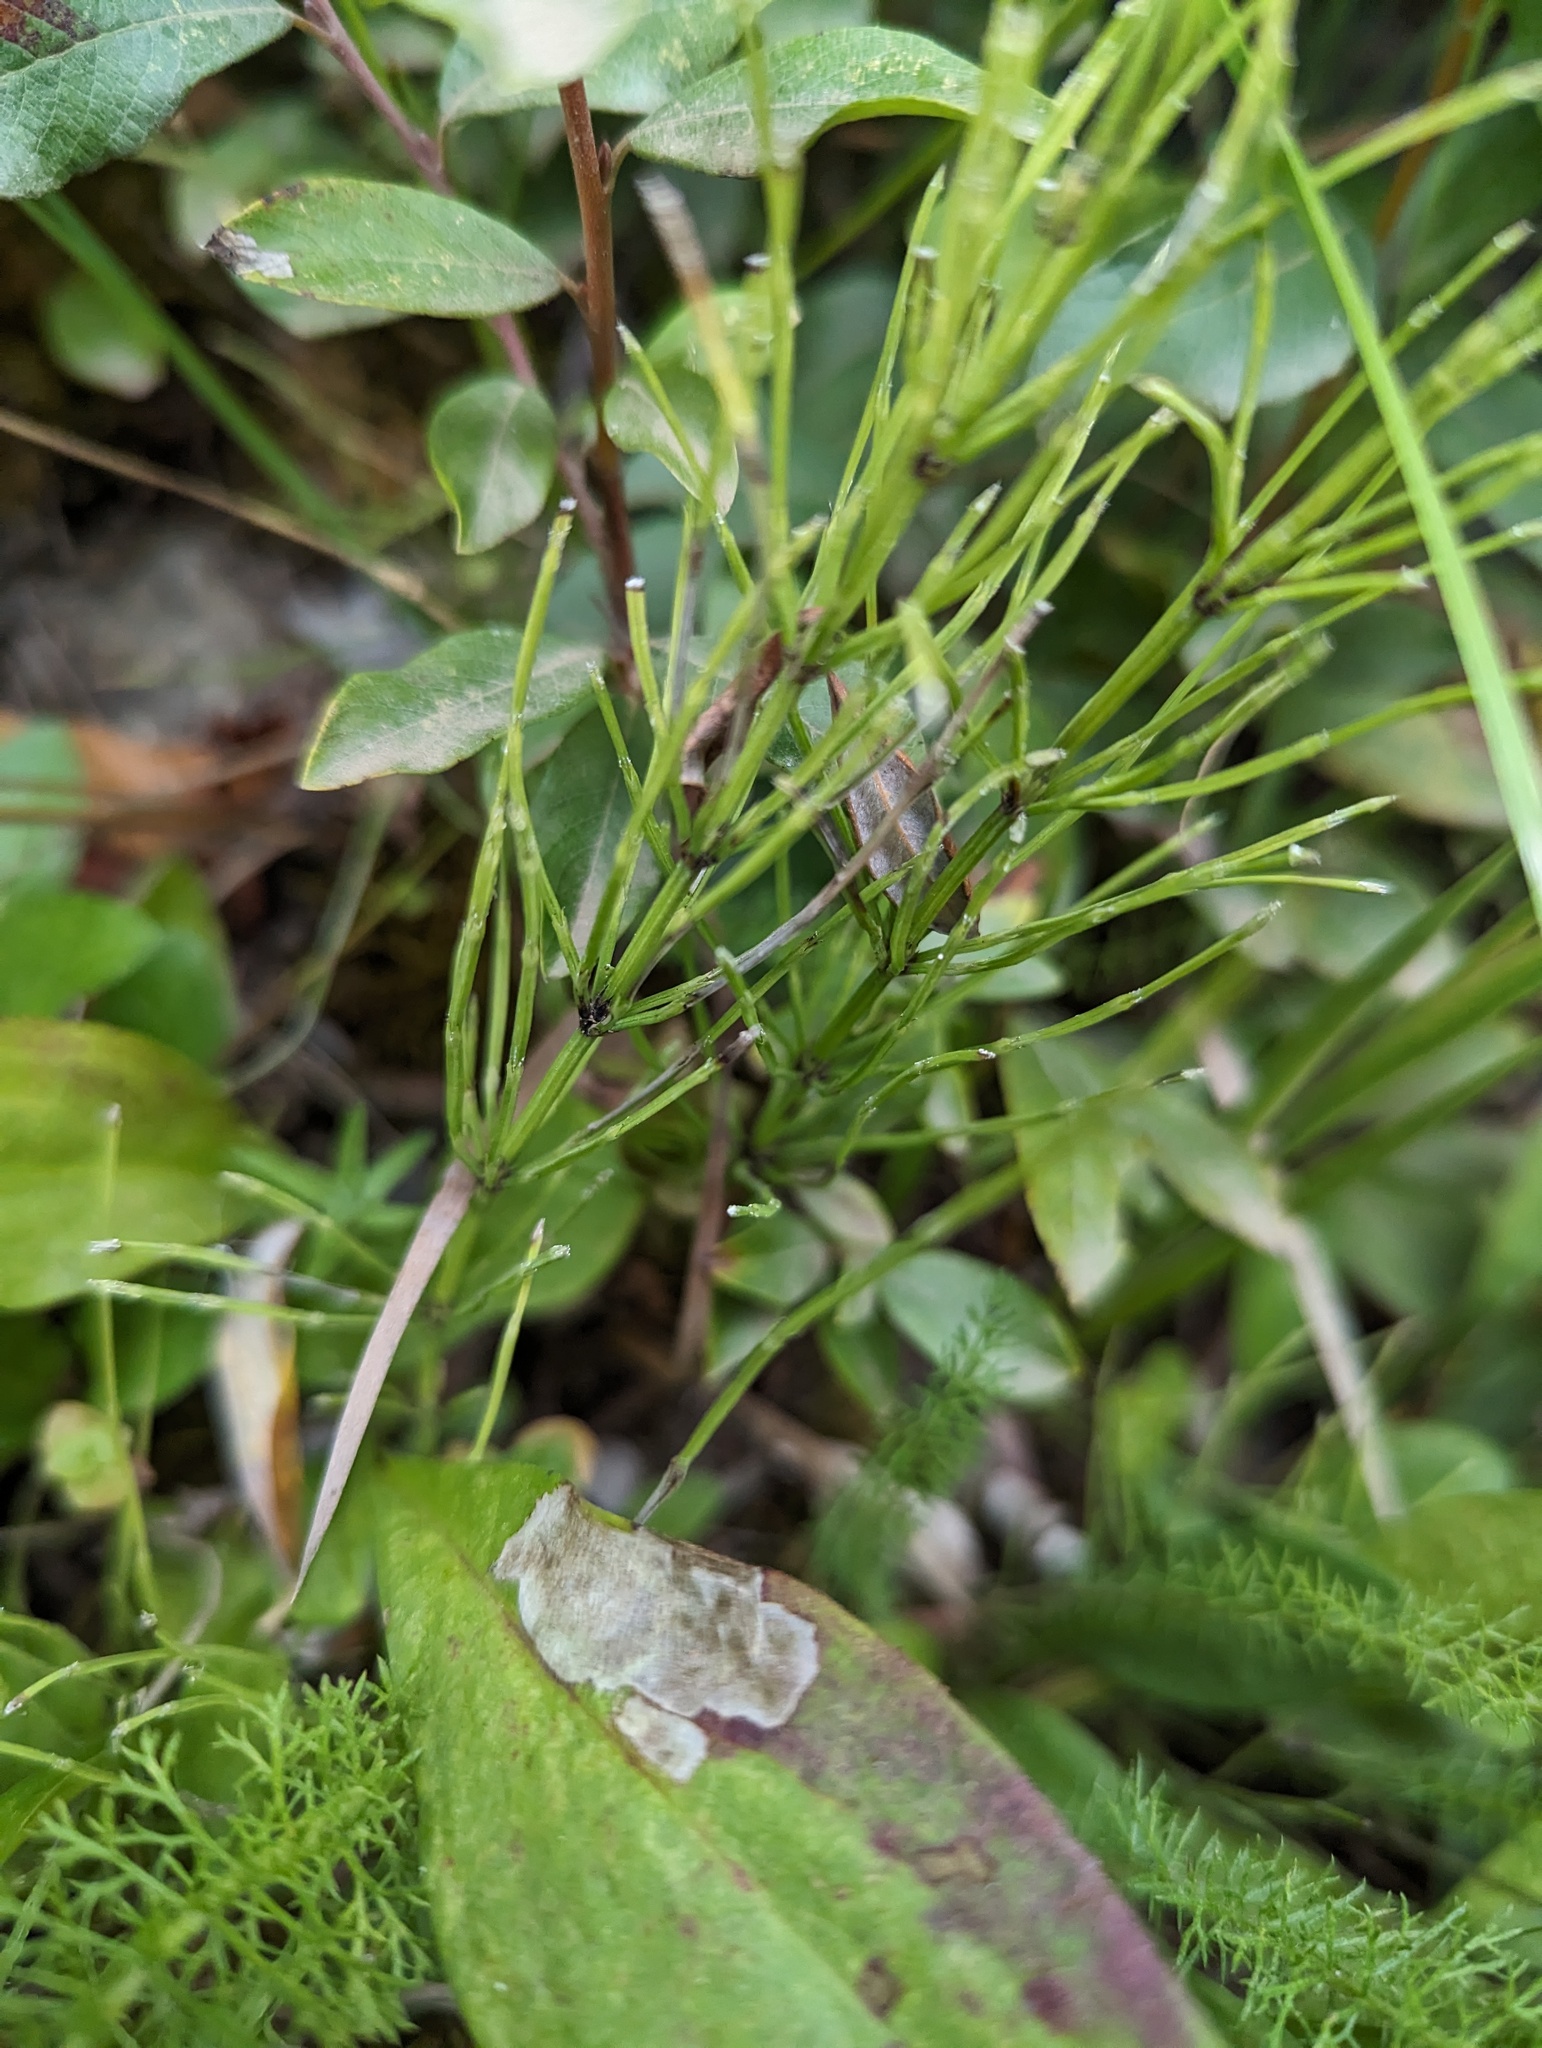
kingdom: Plantae
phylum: Tracheophyta
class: Polypodiopsida
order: Equisetales
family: Equisetaceae
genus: Equisetum
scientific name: Equisetum arvense
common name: Field horsetail
